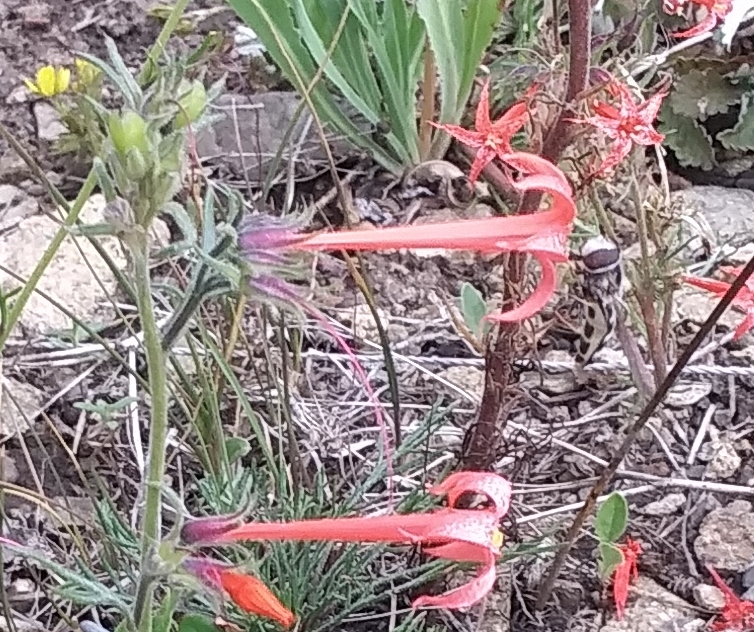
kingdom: Animalia
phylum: Arthropoda
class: Insecta
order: Diptera
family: Syrphidae
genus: Scaeva
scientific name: Scaeva affinis
